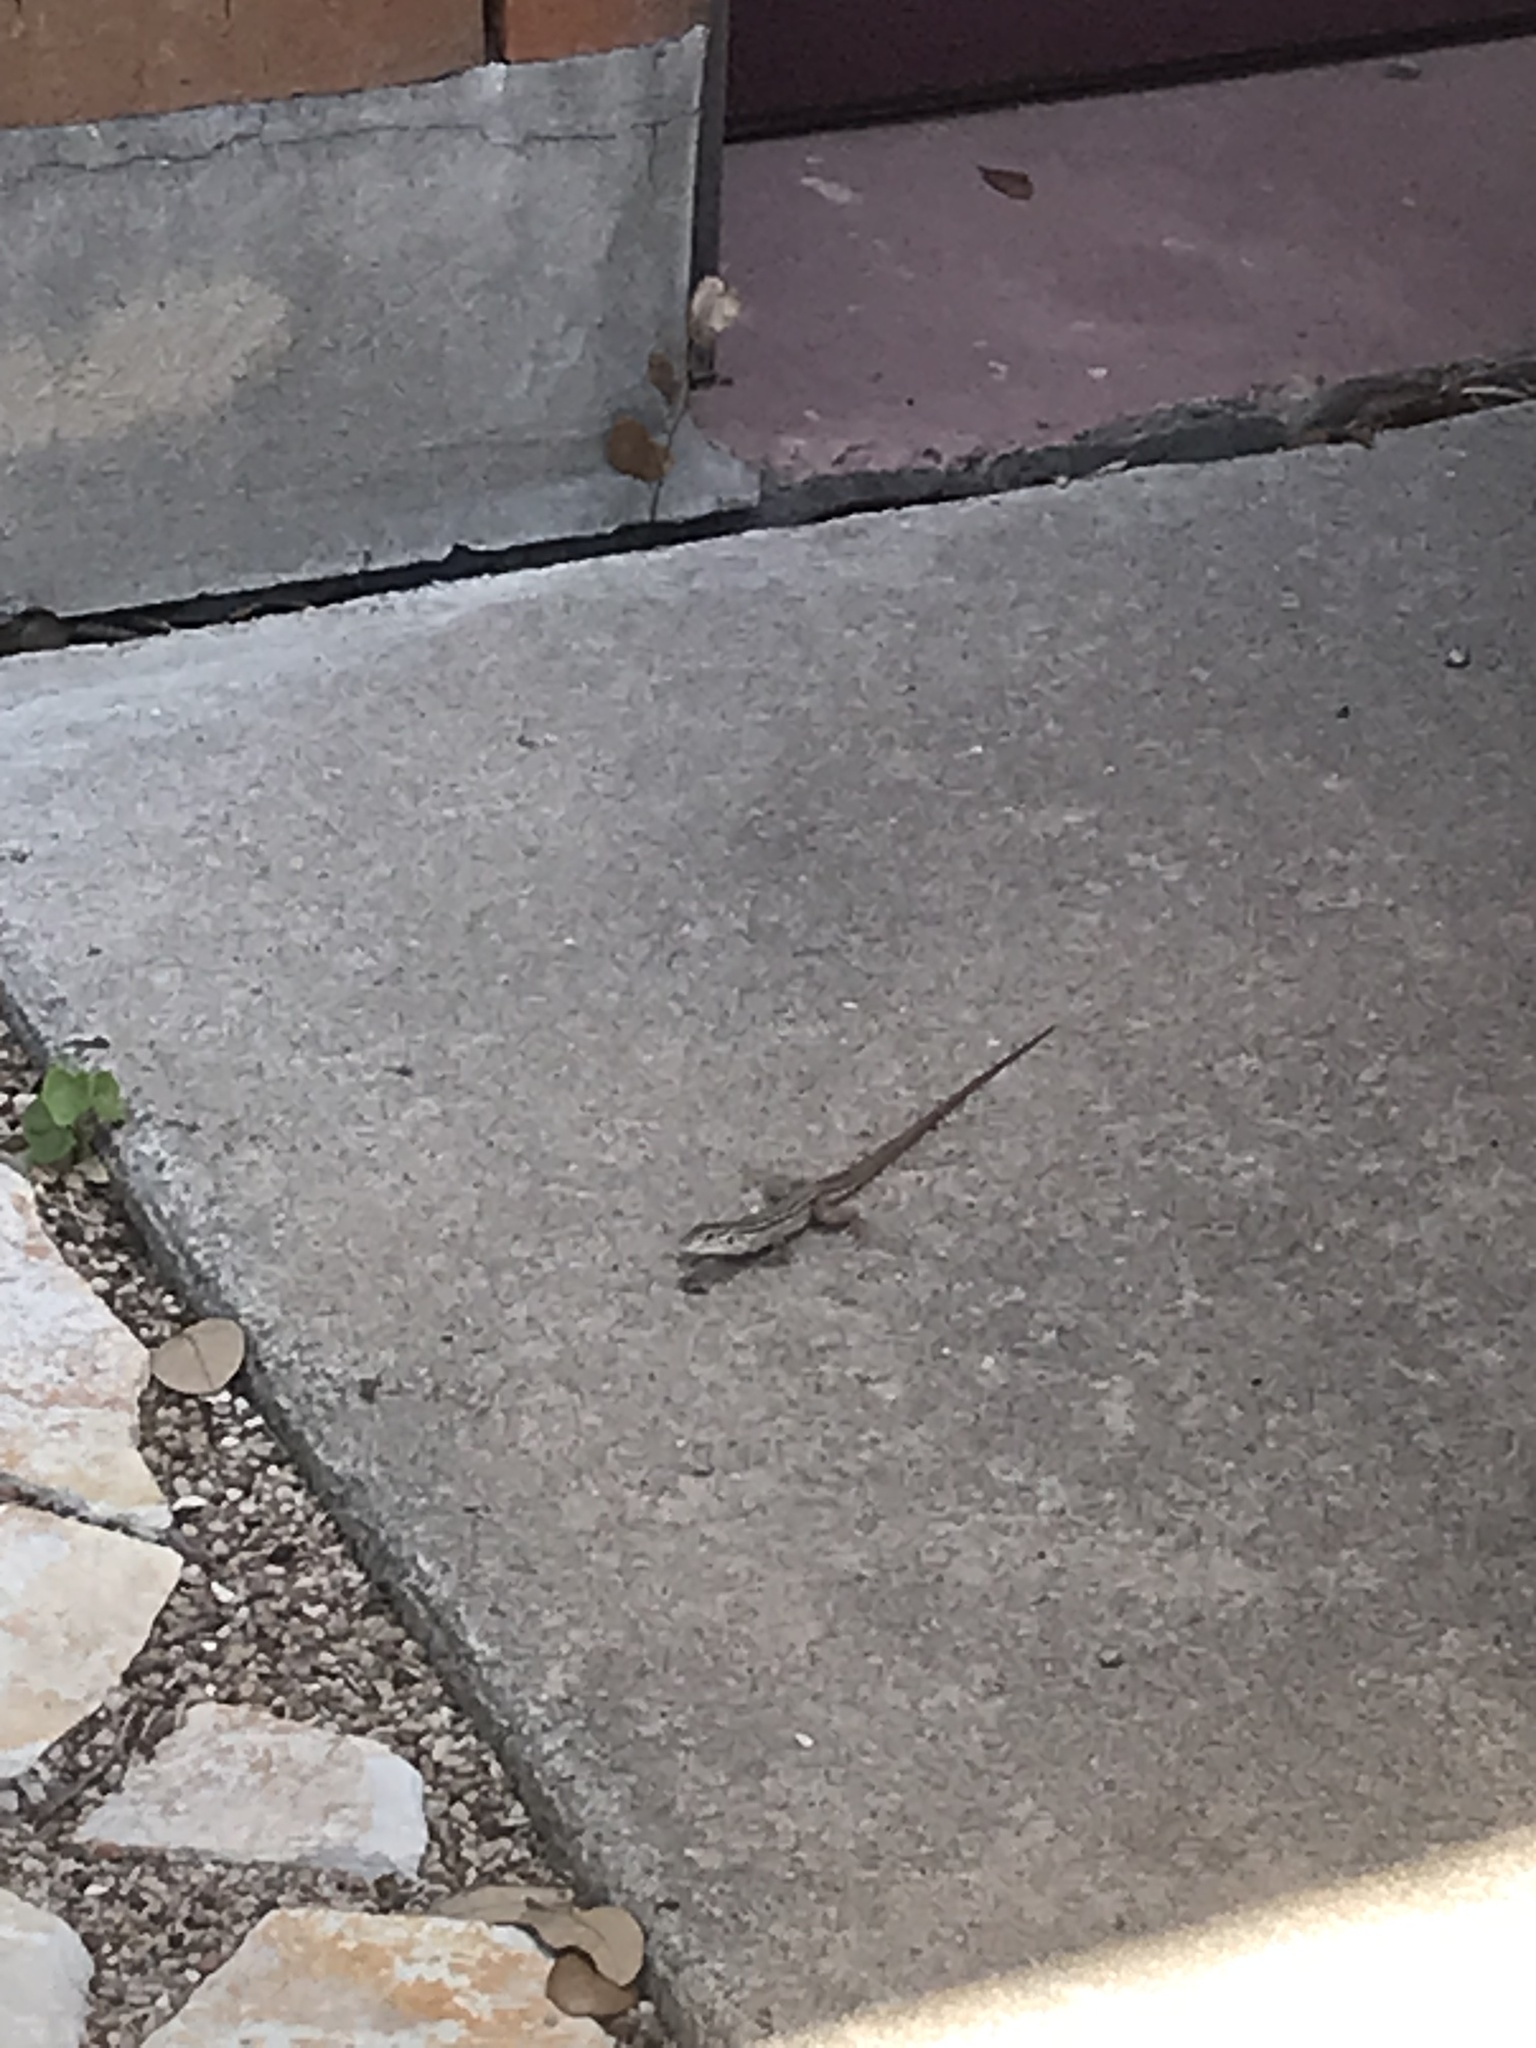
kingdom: Animalia
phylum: Chordata
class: Squamata
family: Teiidae
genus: Aspidoscelis
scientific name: Aspidoscelis gularis
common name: Eastern spotted whiptail
